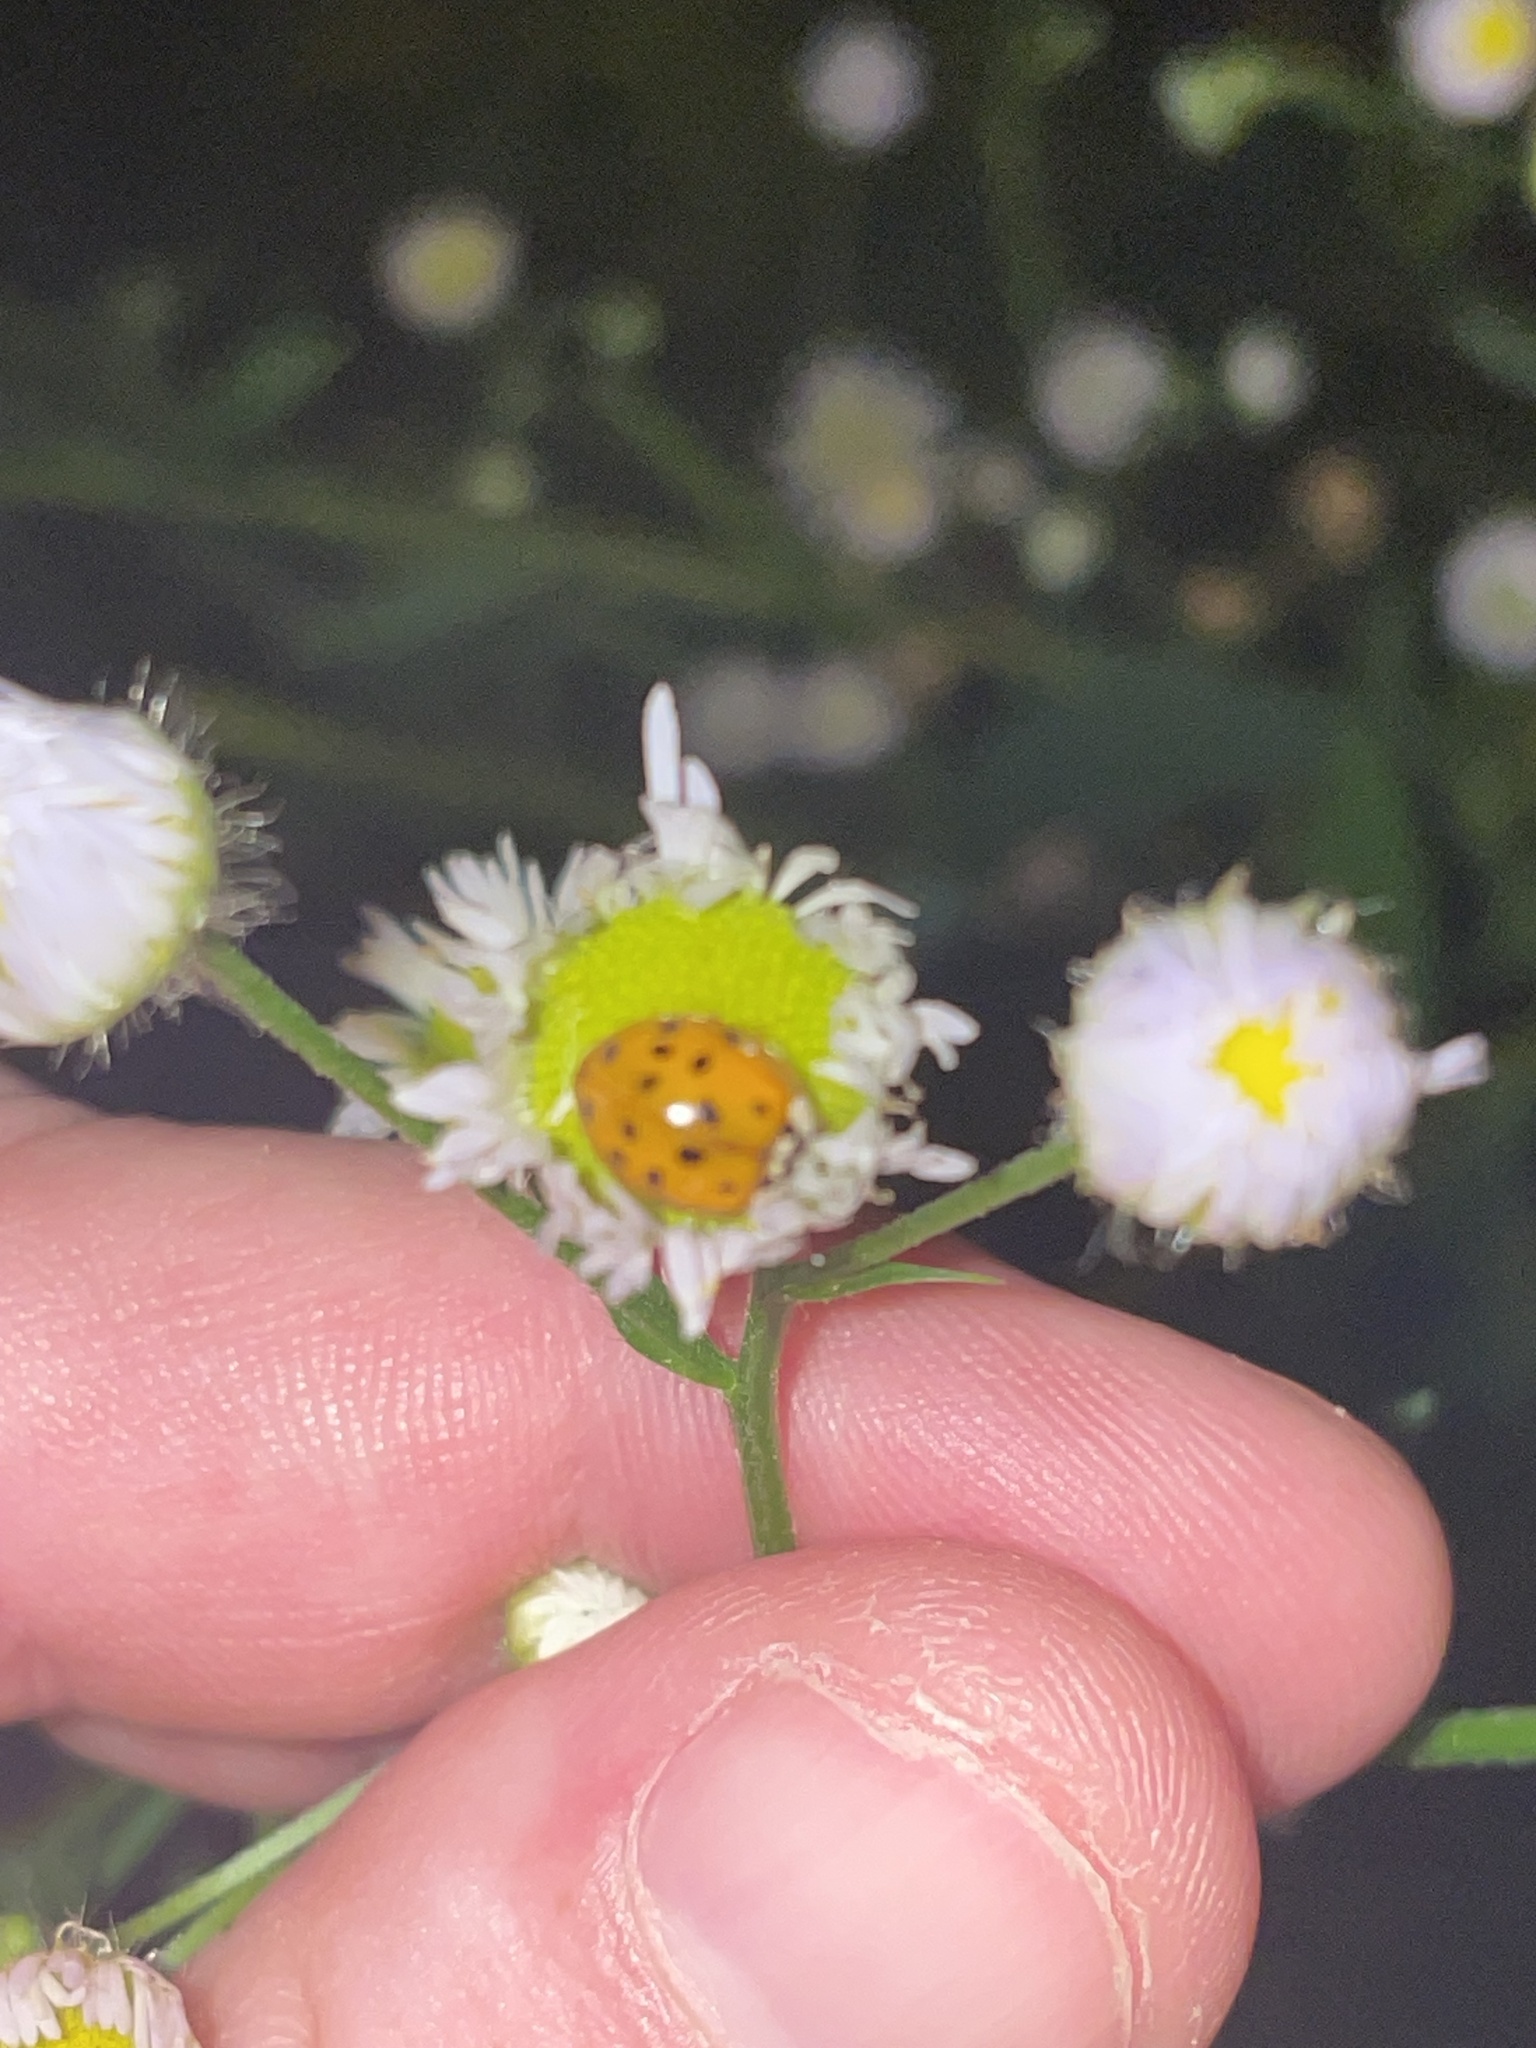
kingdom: Animalia
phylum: Arthropoda
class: Insecta
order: Coleoptera
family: Coccinellidae
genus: Harmonia
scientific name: Harmonia axyridis
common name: Harlequin ladybird
